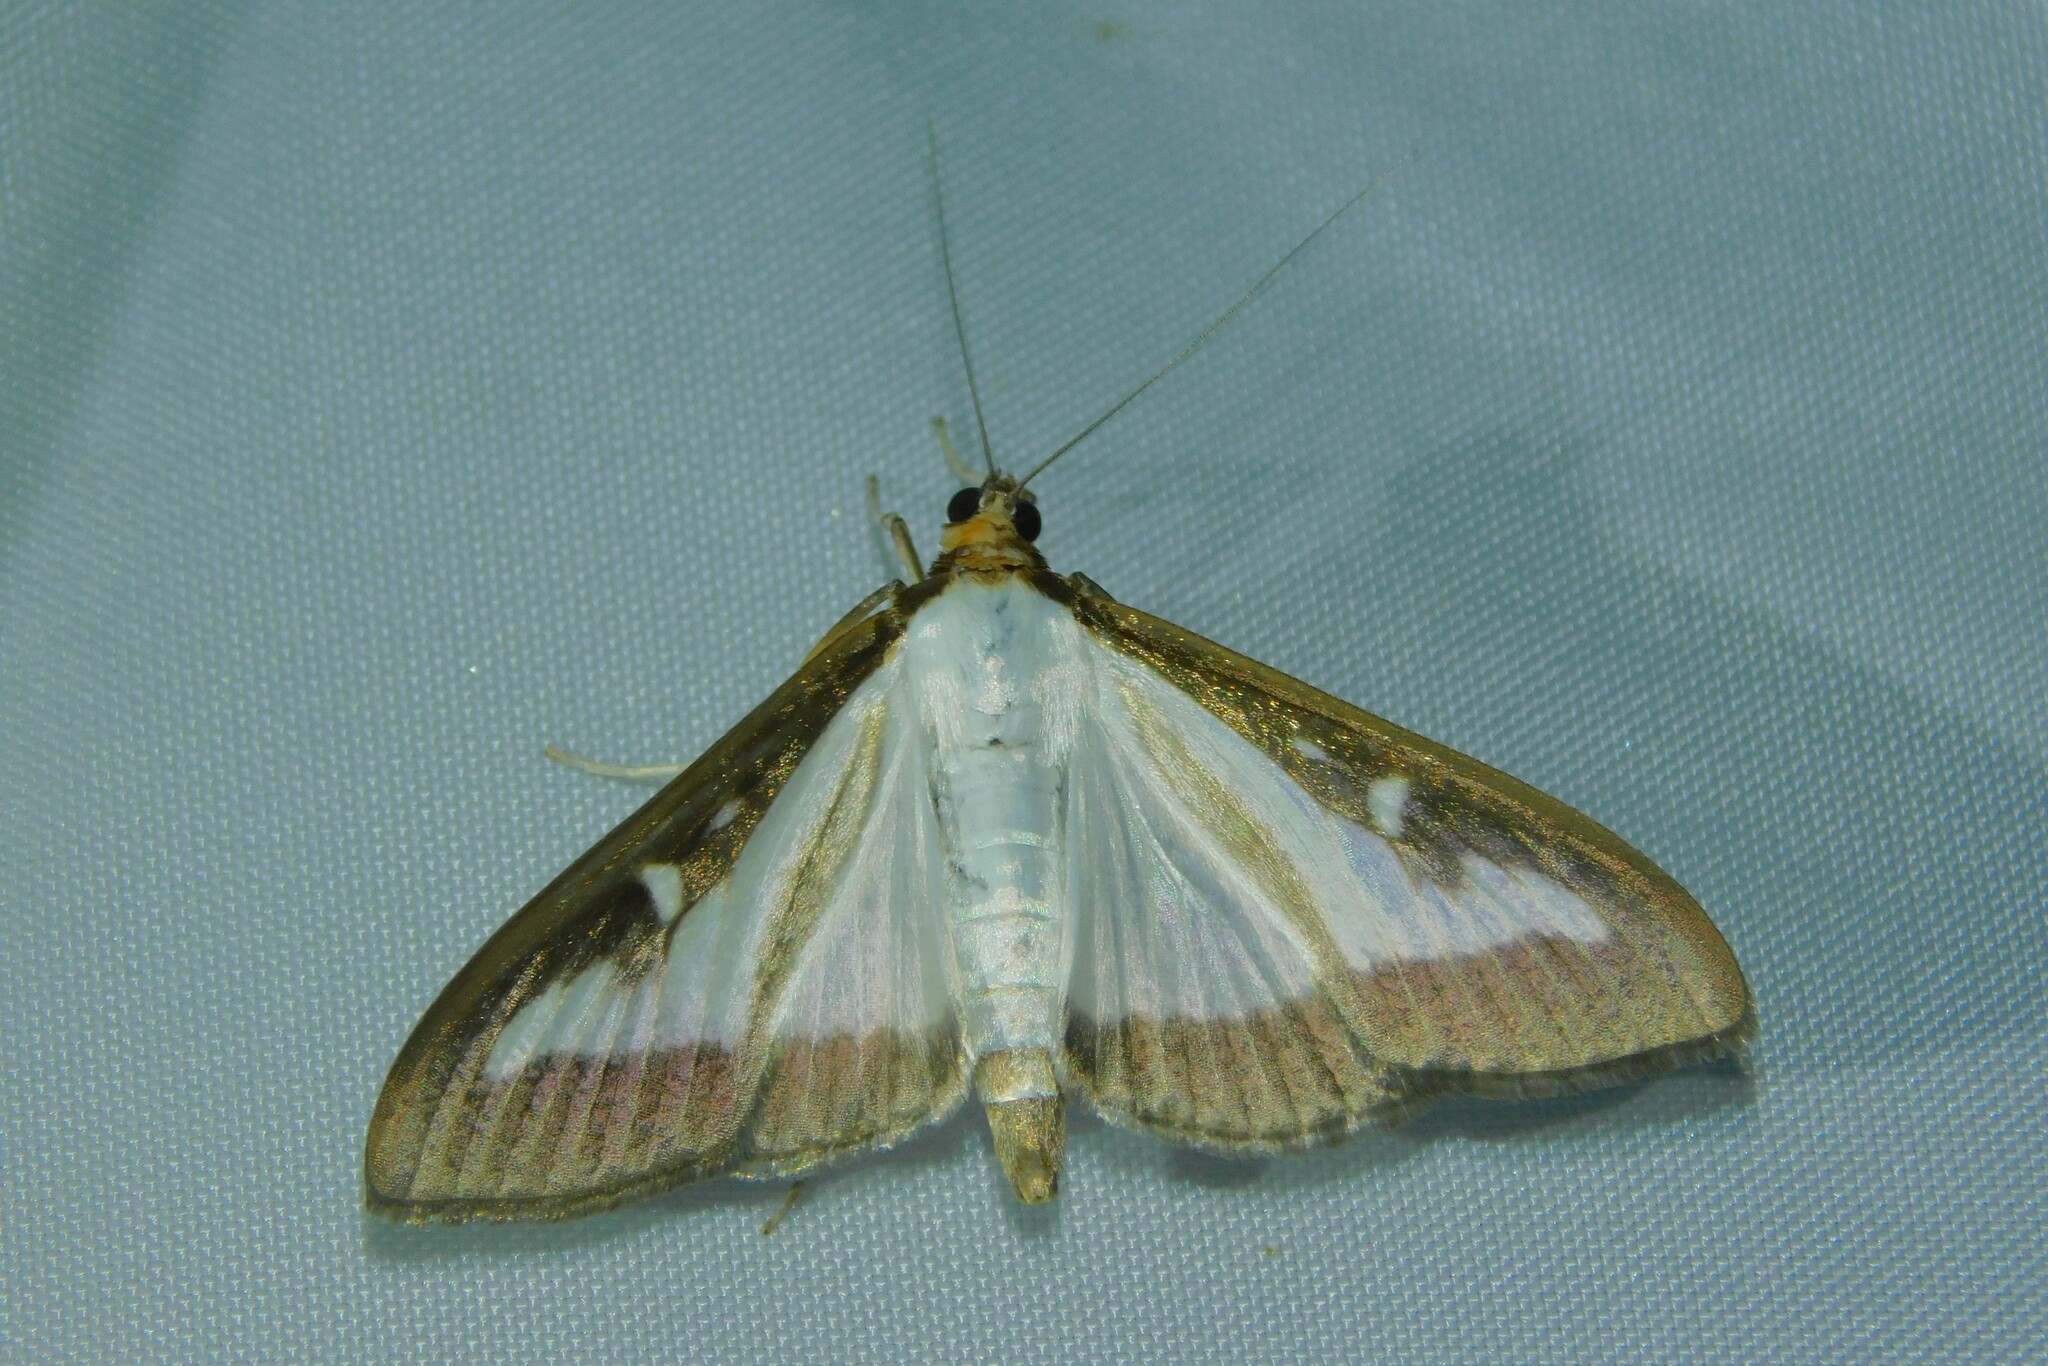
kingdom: Animalia
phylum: Arthropoda
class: Insecta
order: Lepidoptera
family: Crambidae
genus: Cydalima
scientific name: Cydalima perspectalis
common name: Box tree moth
